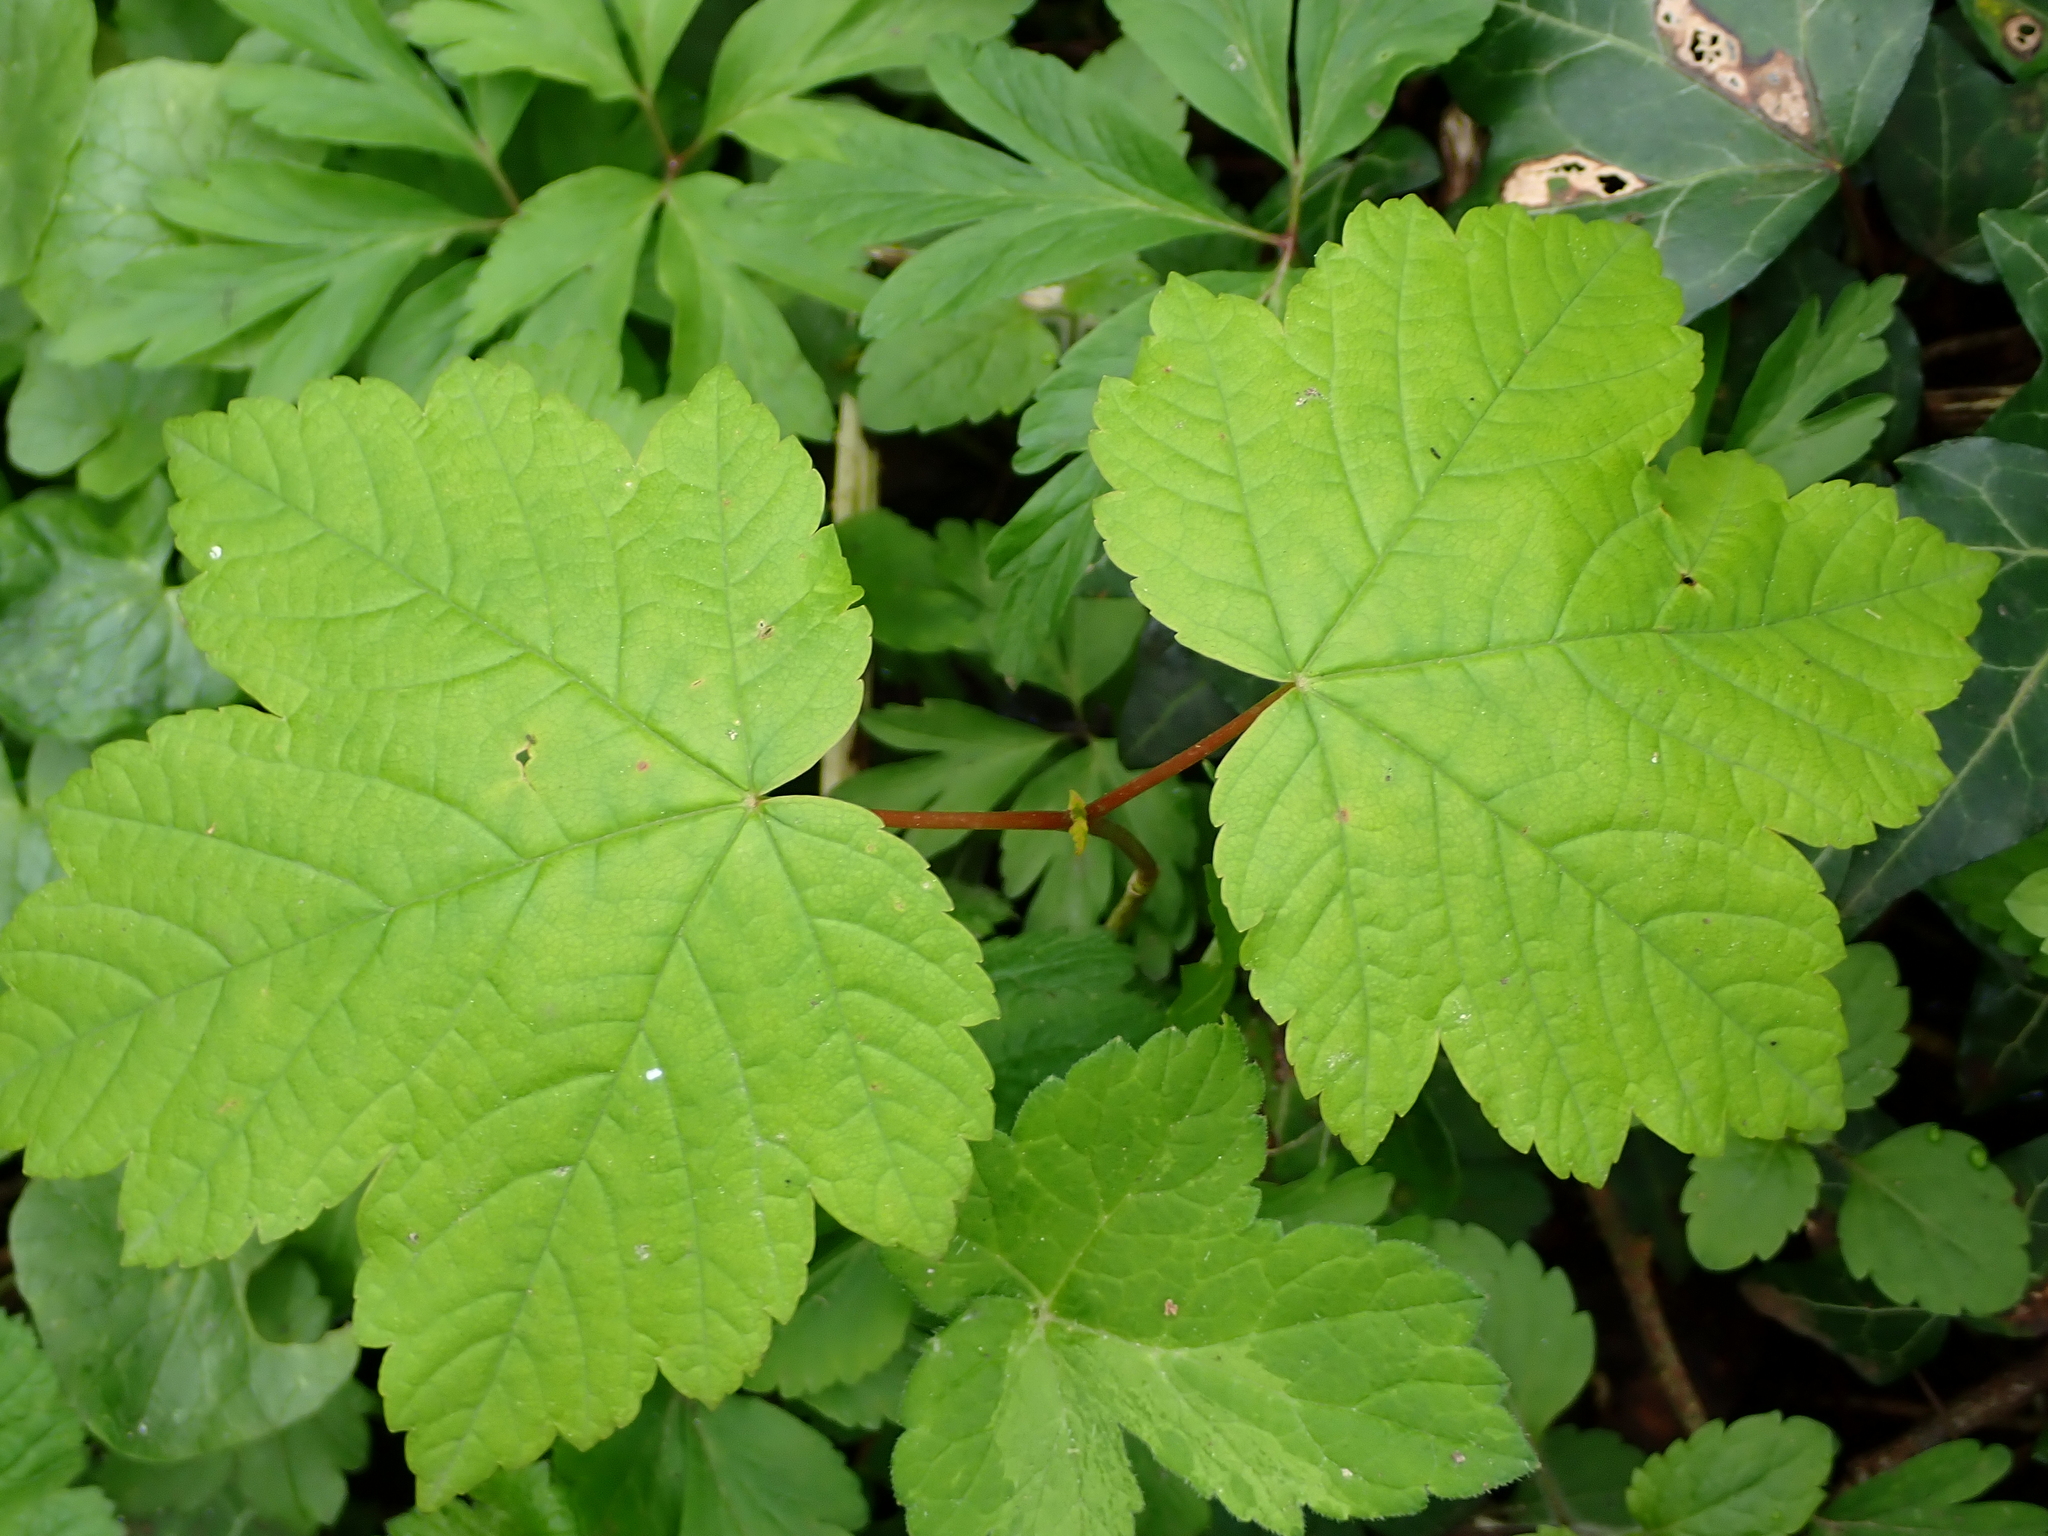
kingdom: Plantae
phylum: Tracheophyta
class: Magnoliopsida
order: Sapindales
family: Sapindaceae
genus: Acer
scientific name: Acer pseudoplatanus
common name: Sycamore
